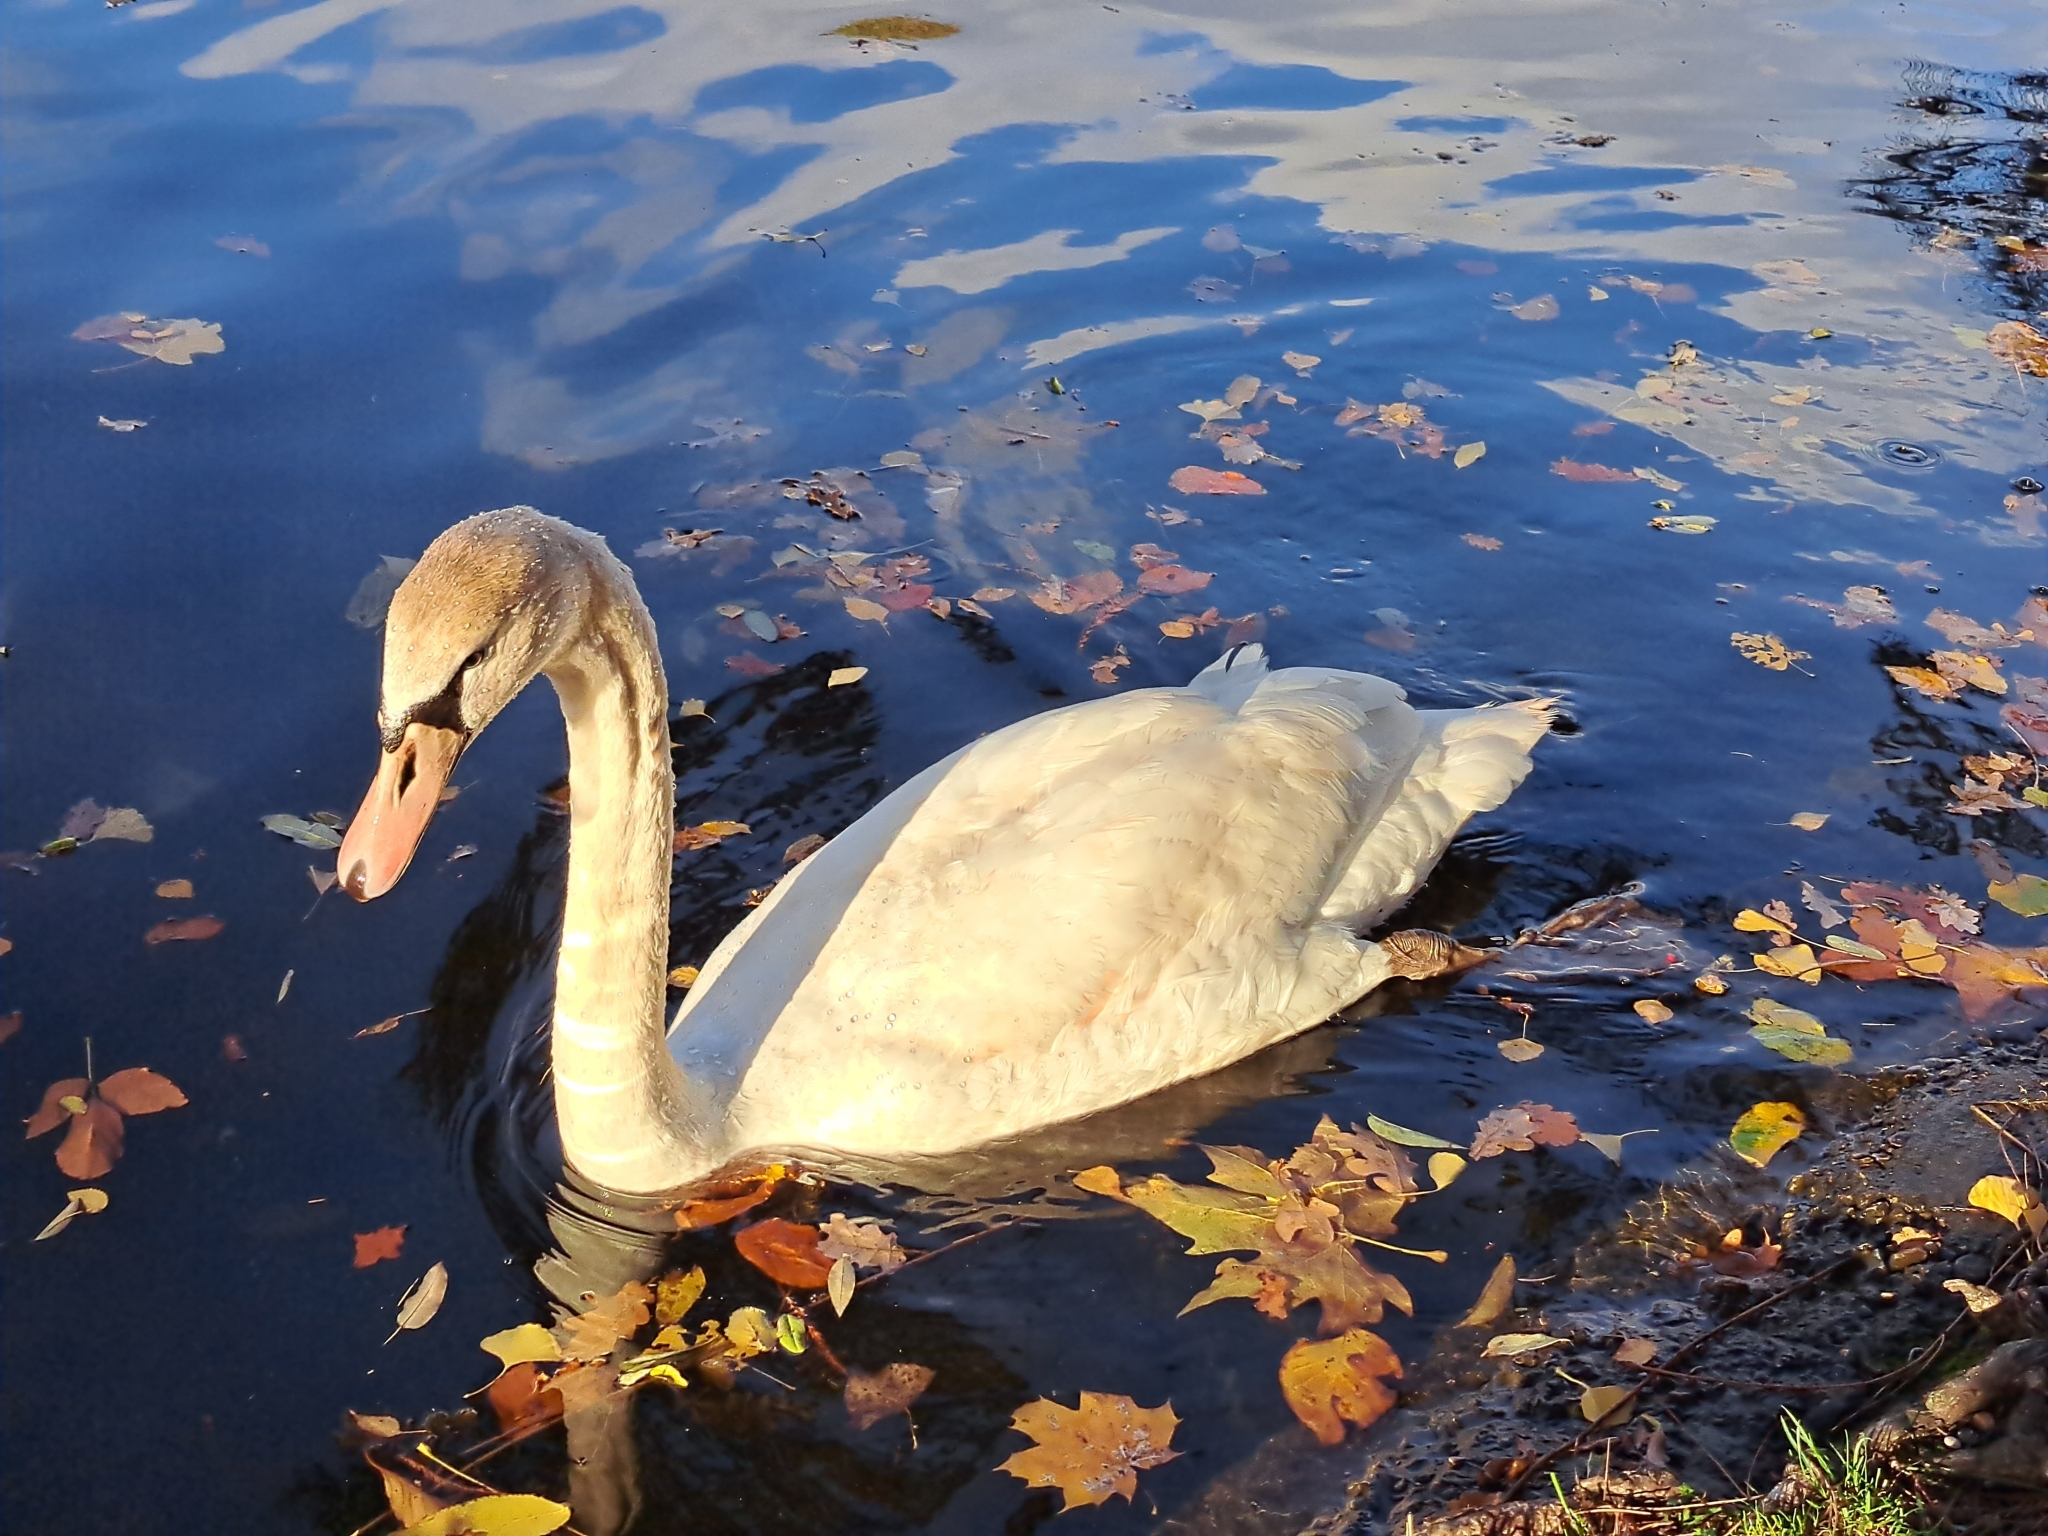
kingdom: Animalia
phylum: Chordata
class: Aves
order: Anseriformes
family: Anatidae
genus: Cygnus
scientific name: Cygnus olor
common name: Mute swan
